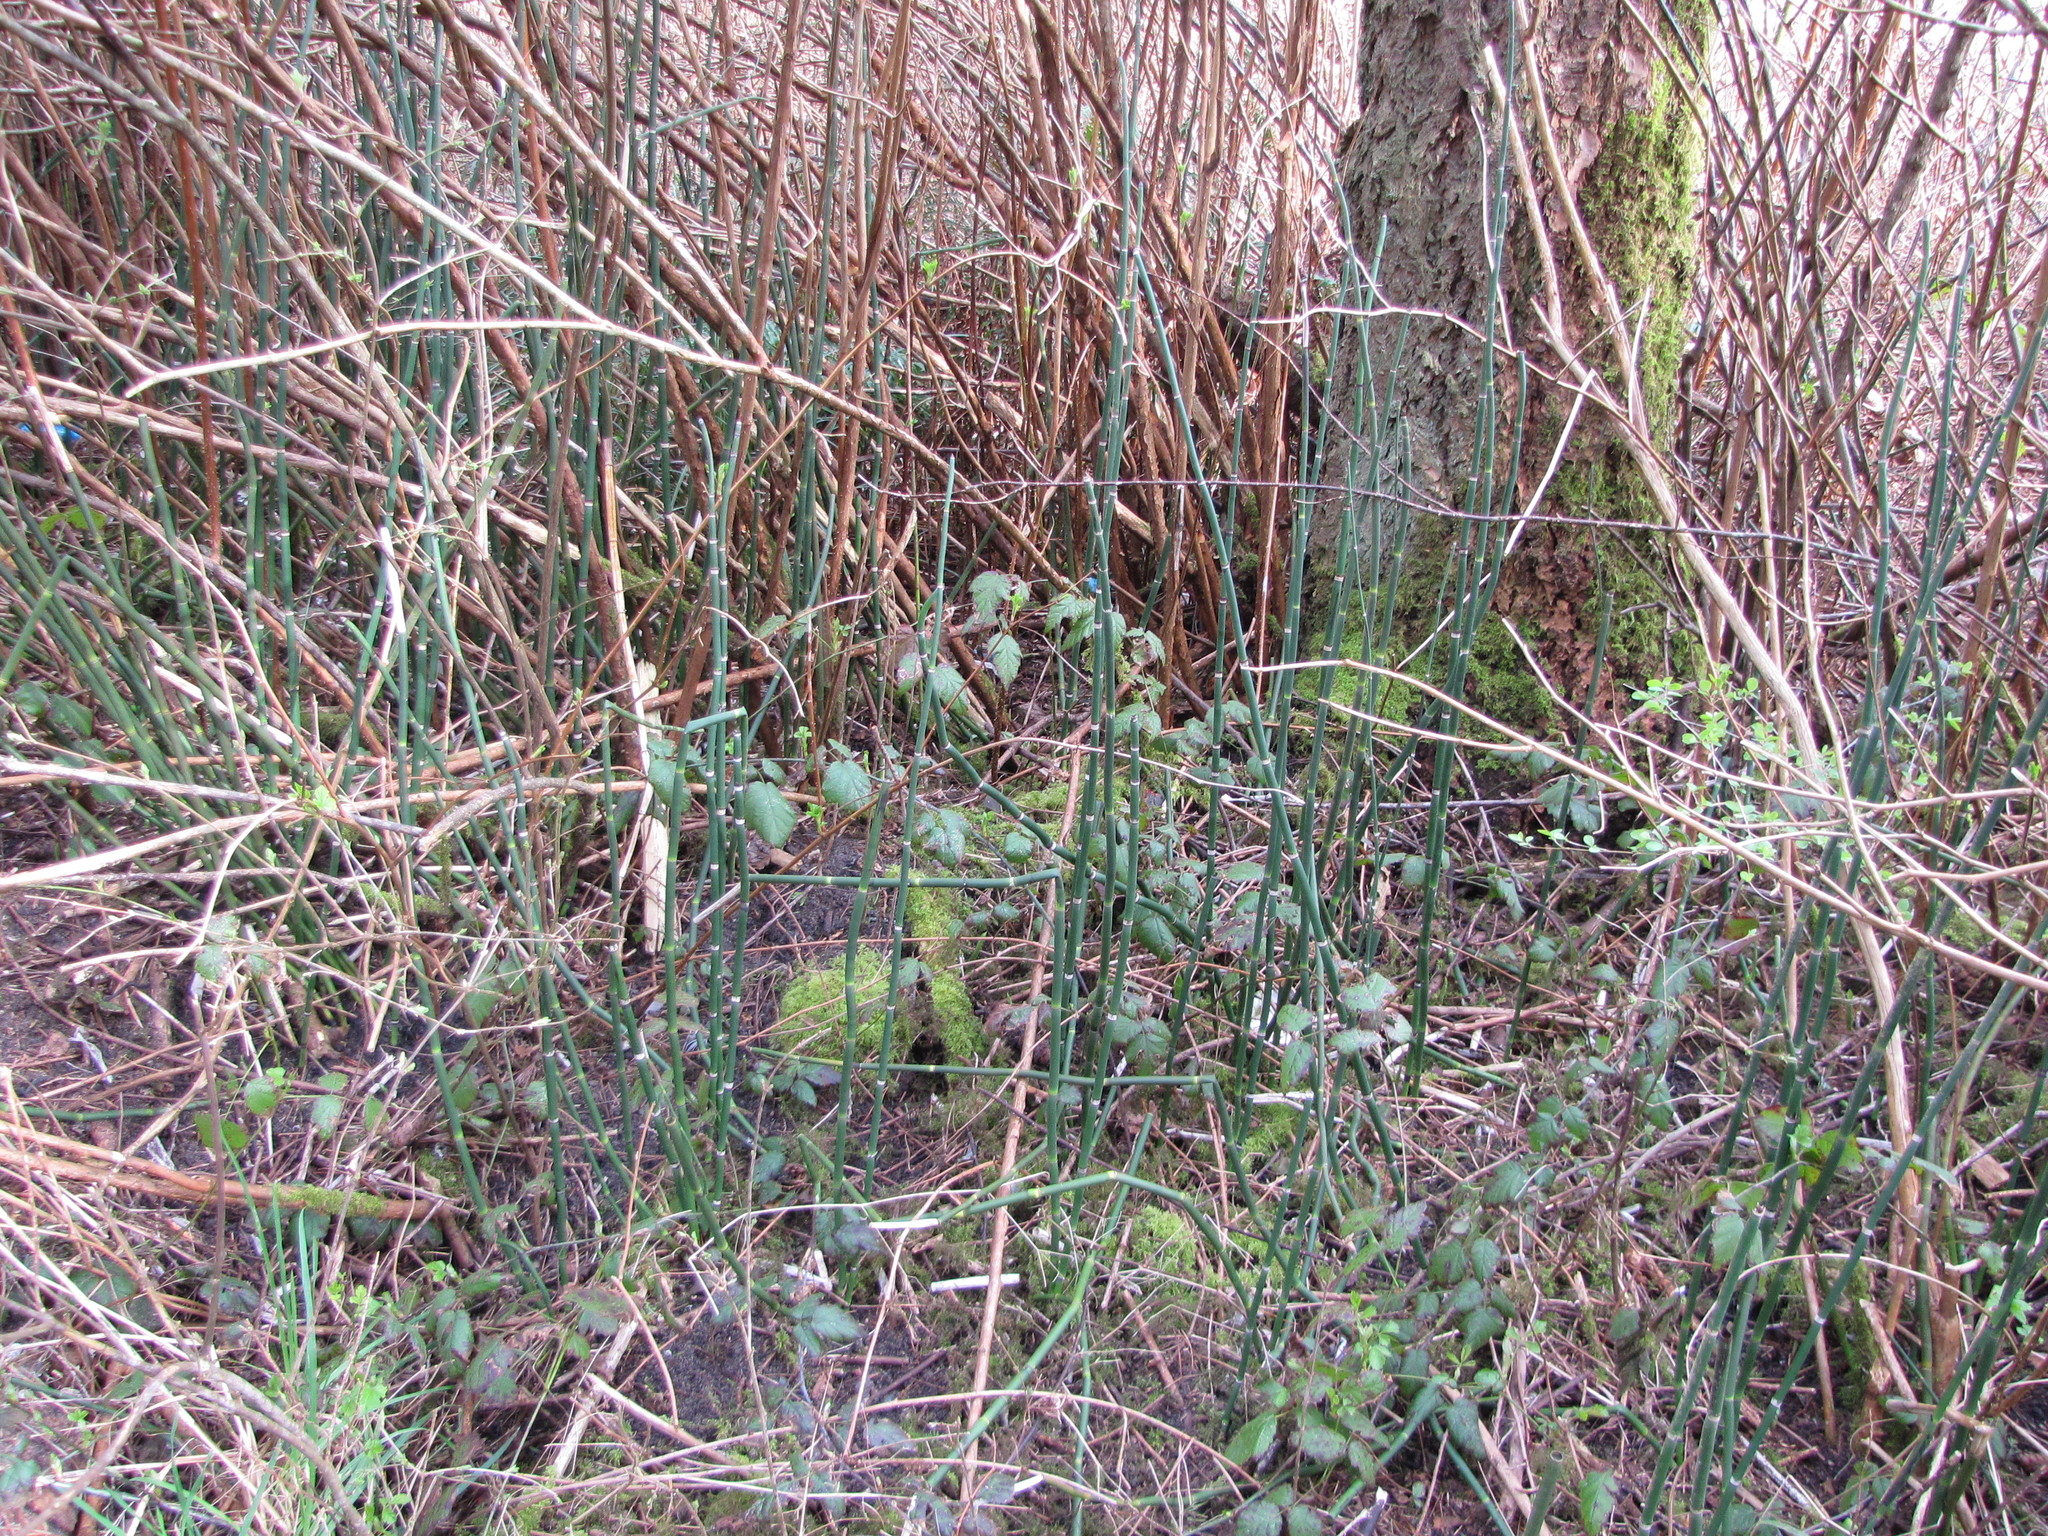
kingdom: Plantae
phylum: Tracheophyta
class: Polypodiopsida
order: Equisetales
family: Equisetaceae
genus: Equisetum
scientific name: Equisetum hyemale
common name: Rough horsetail
